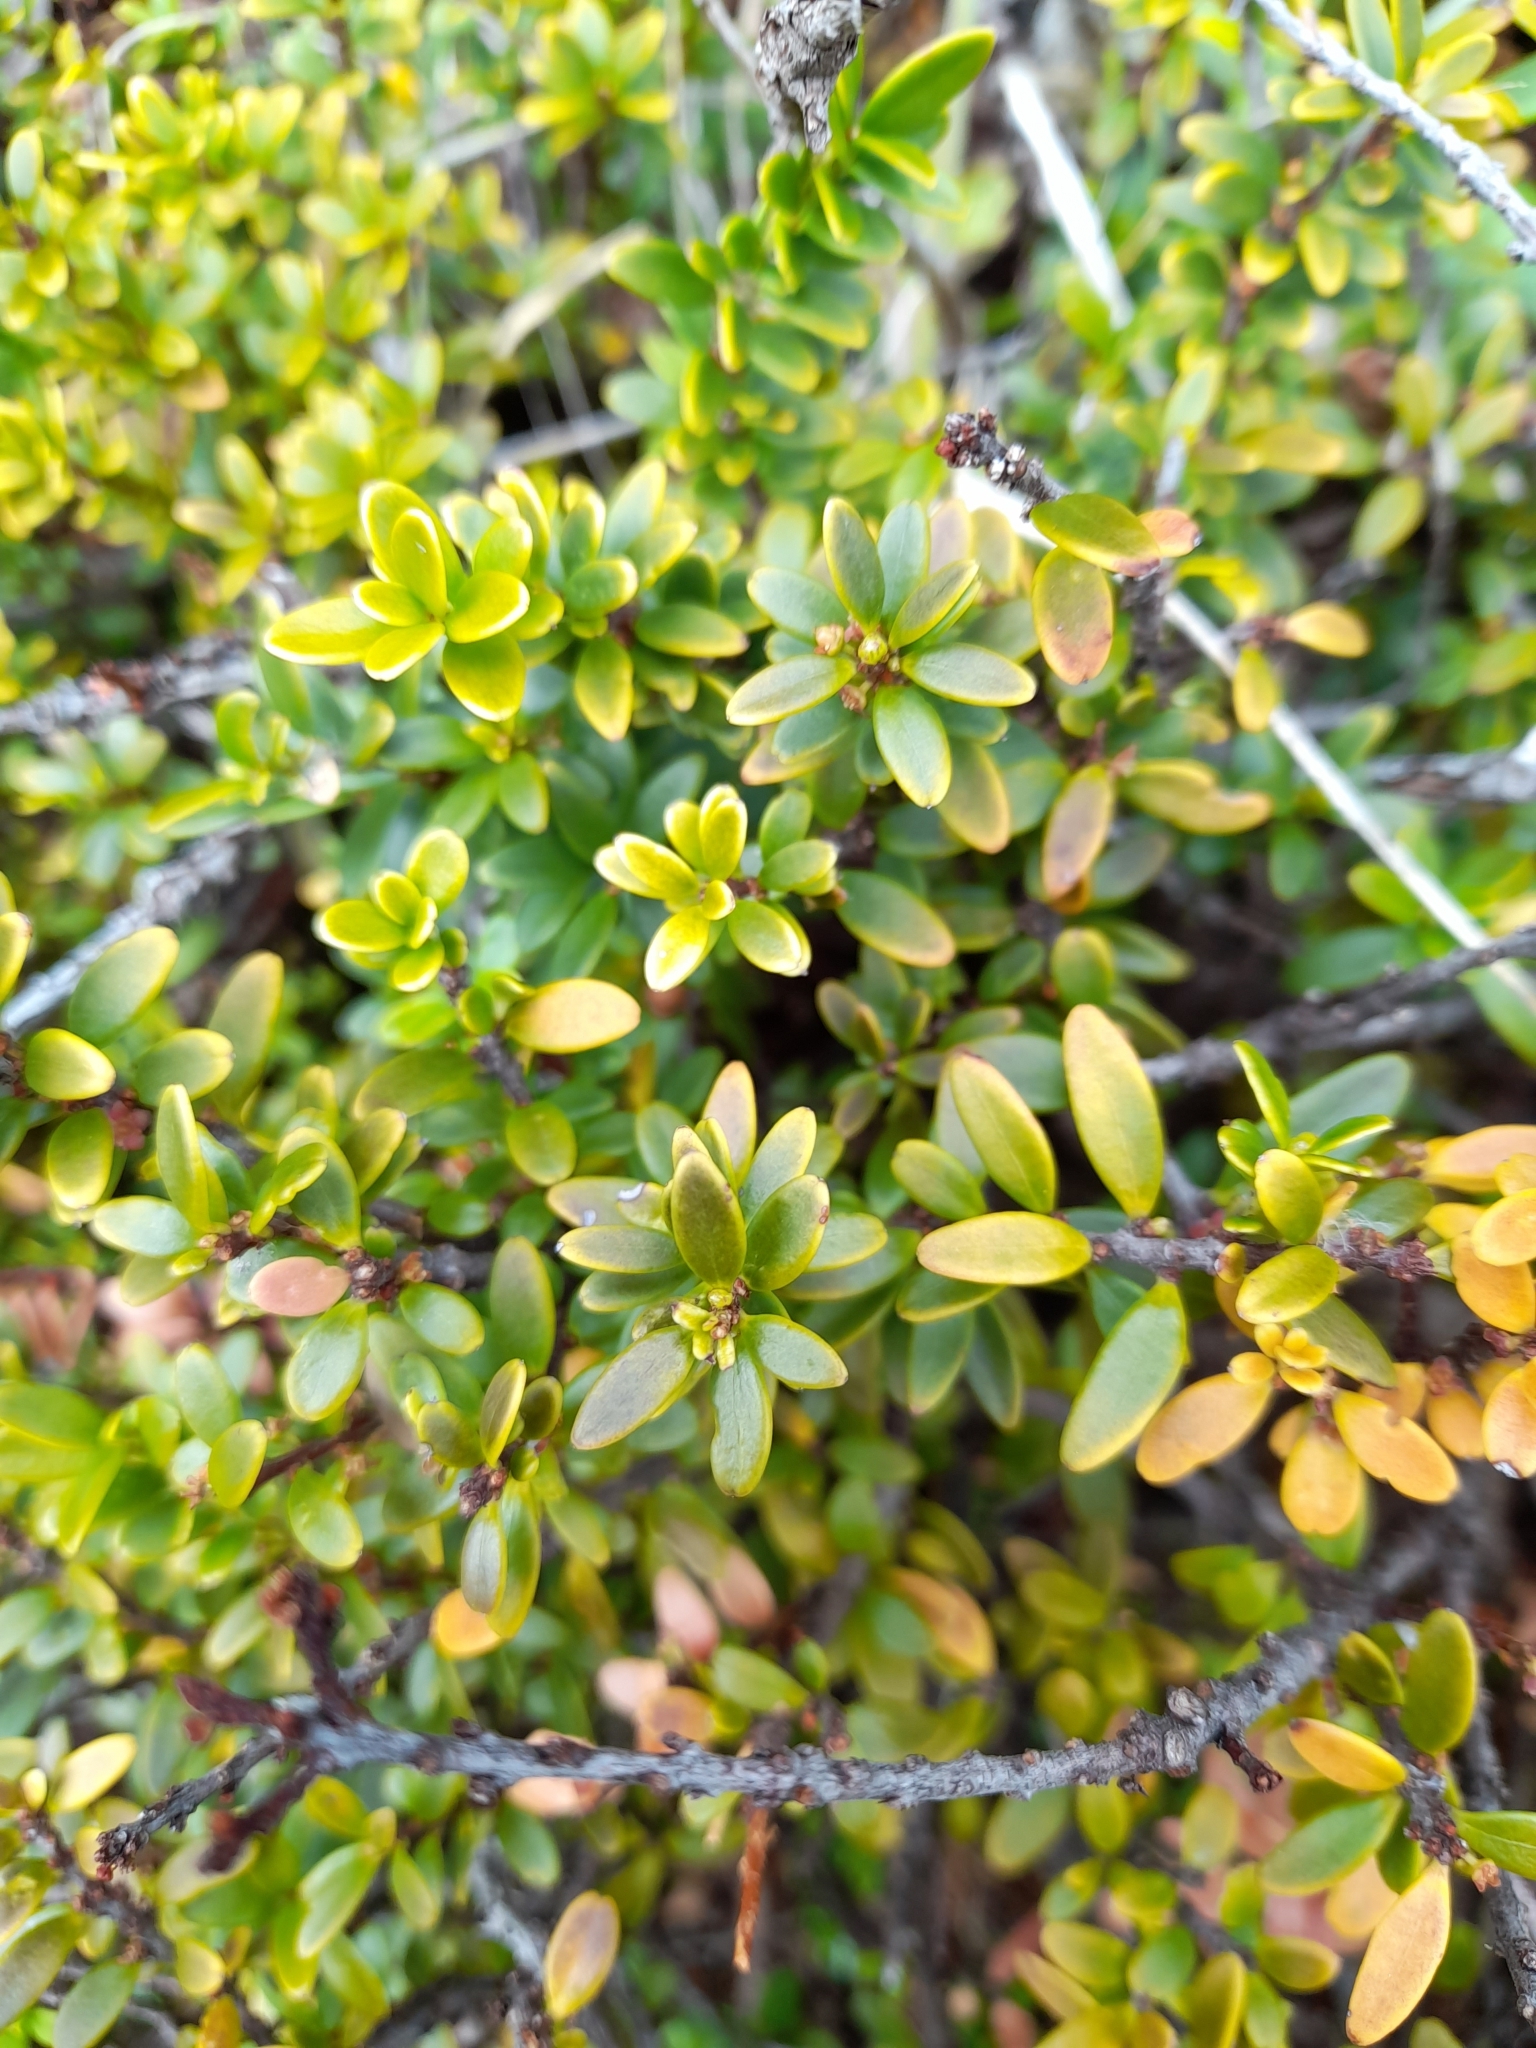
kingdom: Plantae
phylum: Tracheophyta
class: Magnoliopsida
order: Celastrales
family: Celastraceae
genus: Maytenus
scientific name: Maytenus disticha
